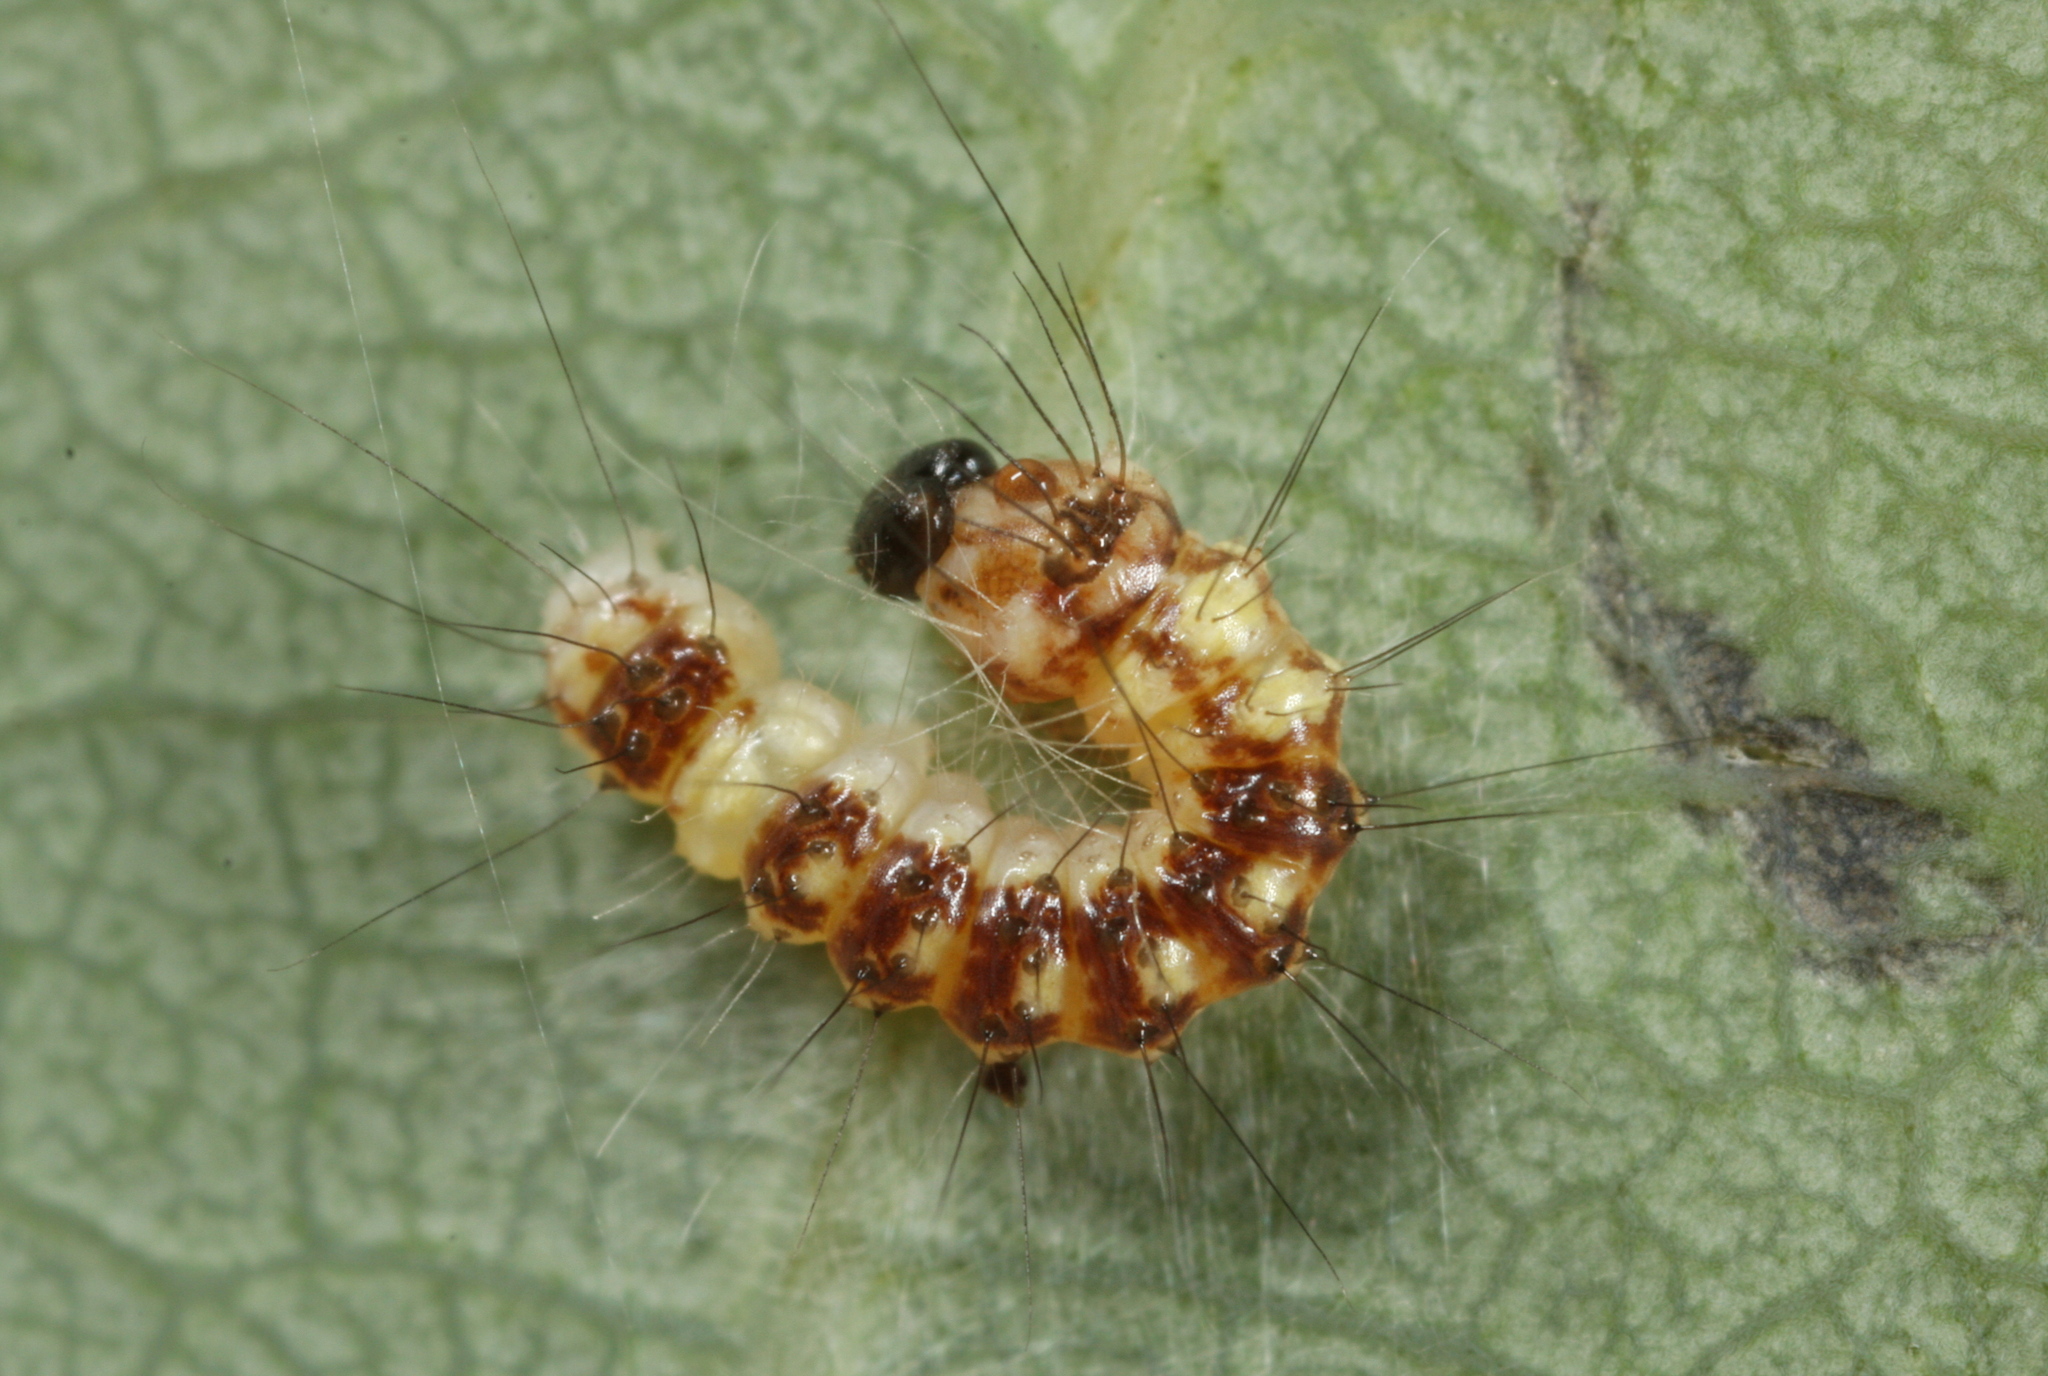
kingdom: Animalia
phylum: Arthropoda
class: Insecta
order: Lepidoptera
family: Noctuidae
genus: Acronicta
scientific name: Acronicta megacephala
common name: Poplar grey
